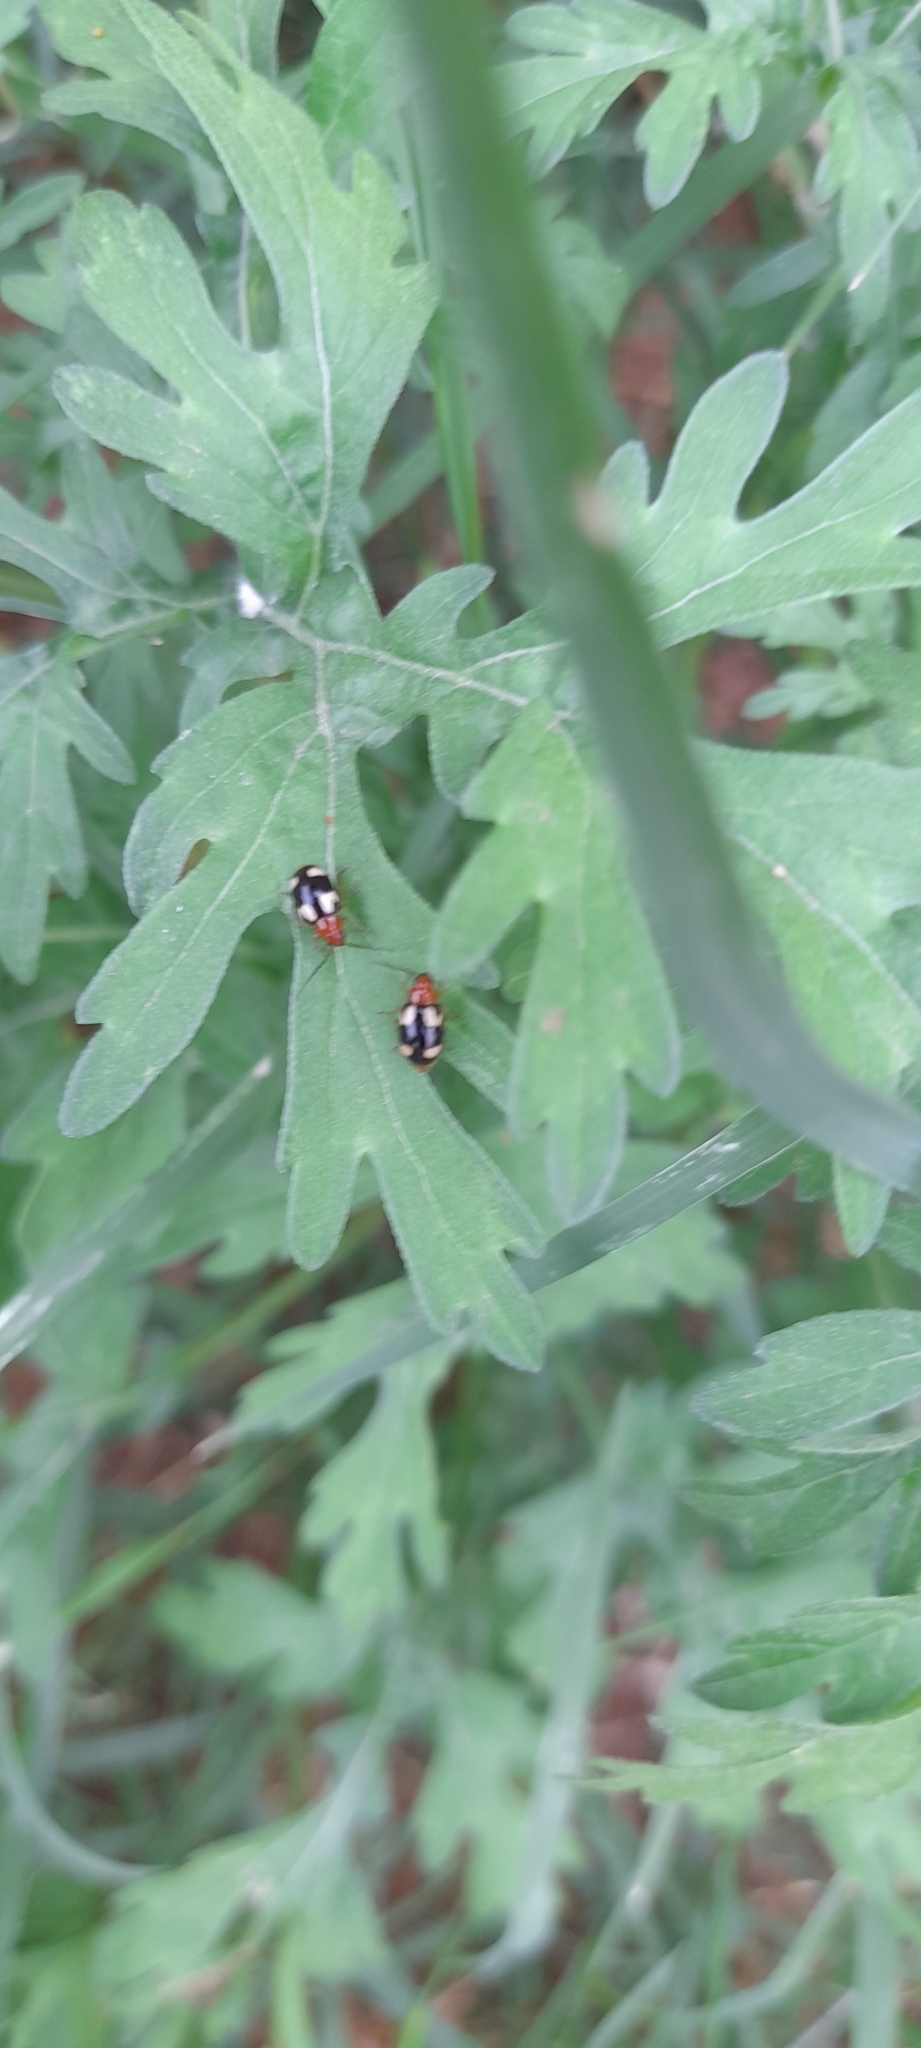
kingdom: Animalia
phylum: Arthropoda
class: Insecta
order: Coleoptera
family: Chrysomelidae
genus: Monolepta
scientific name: Monolepta signata
